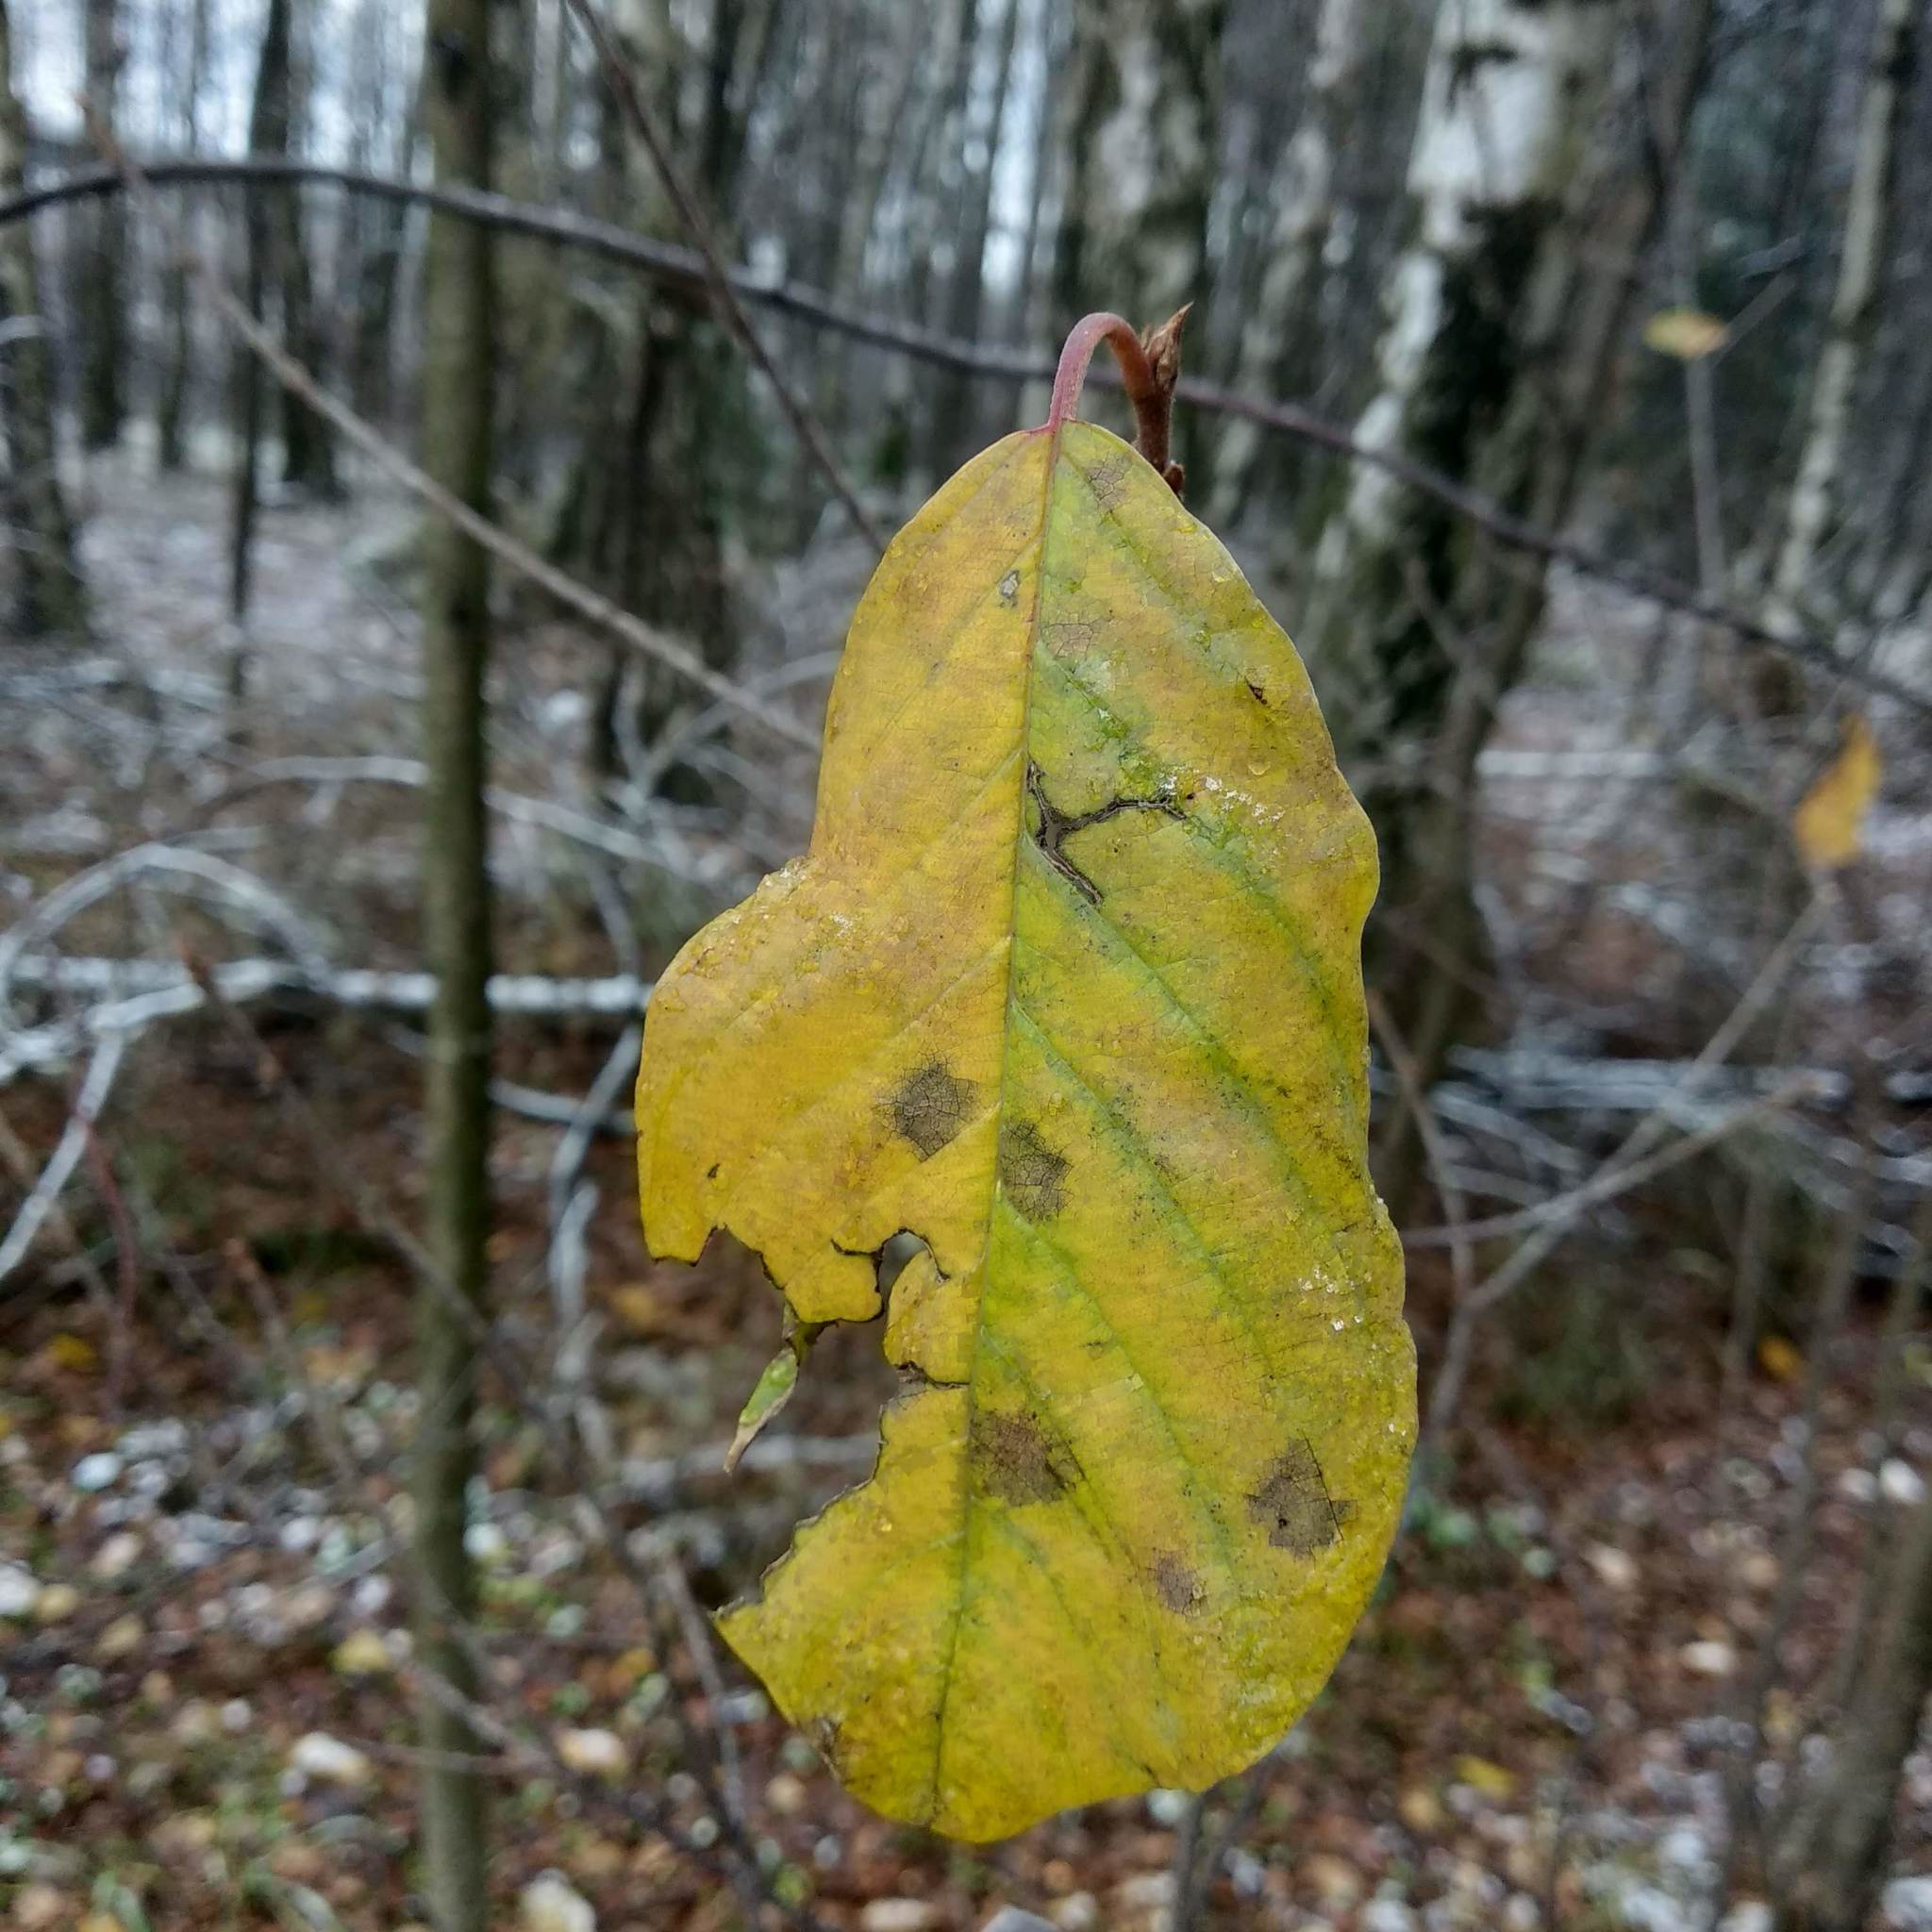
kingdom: Plantae
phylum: Tracheophyta
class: Magnoliopsida
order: Rosales
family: Rosaceae
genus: Prunus
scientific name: Prunus padus
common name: Bird cherry
